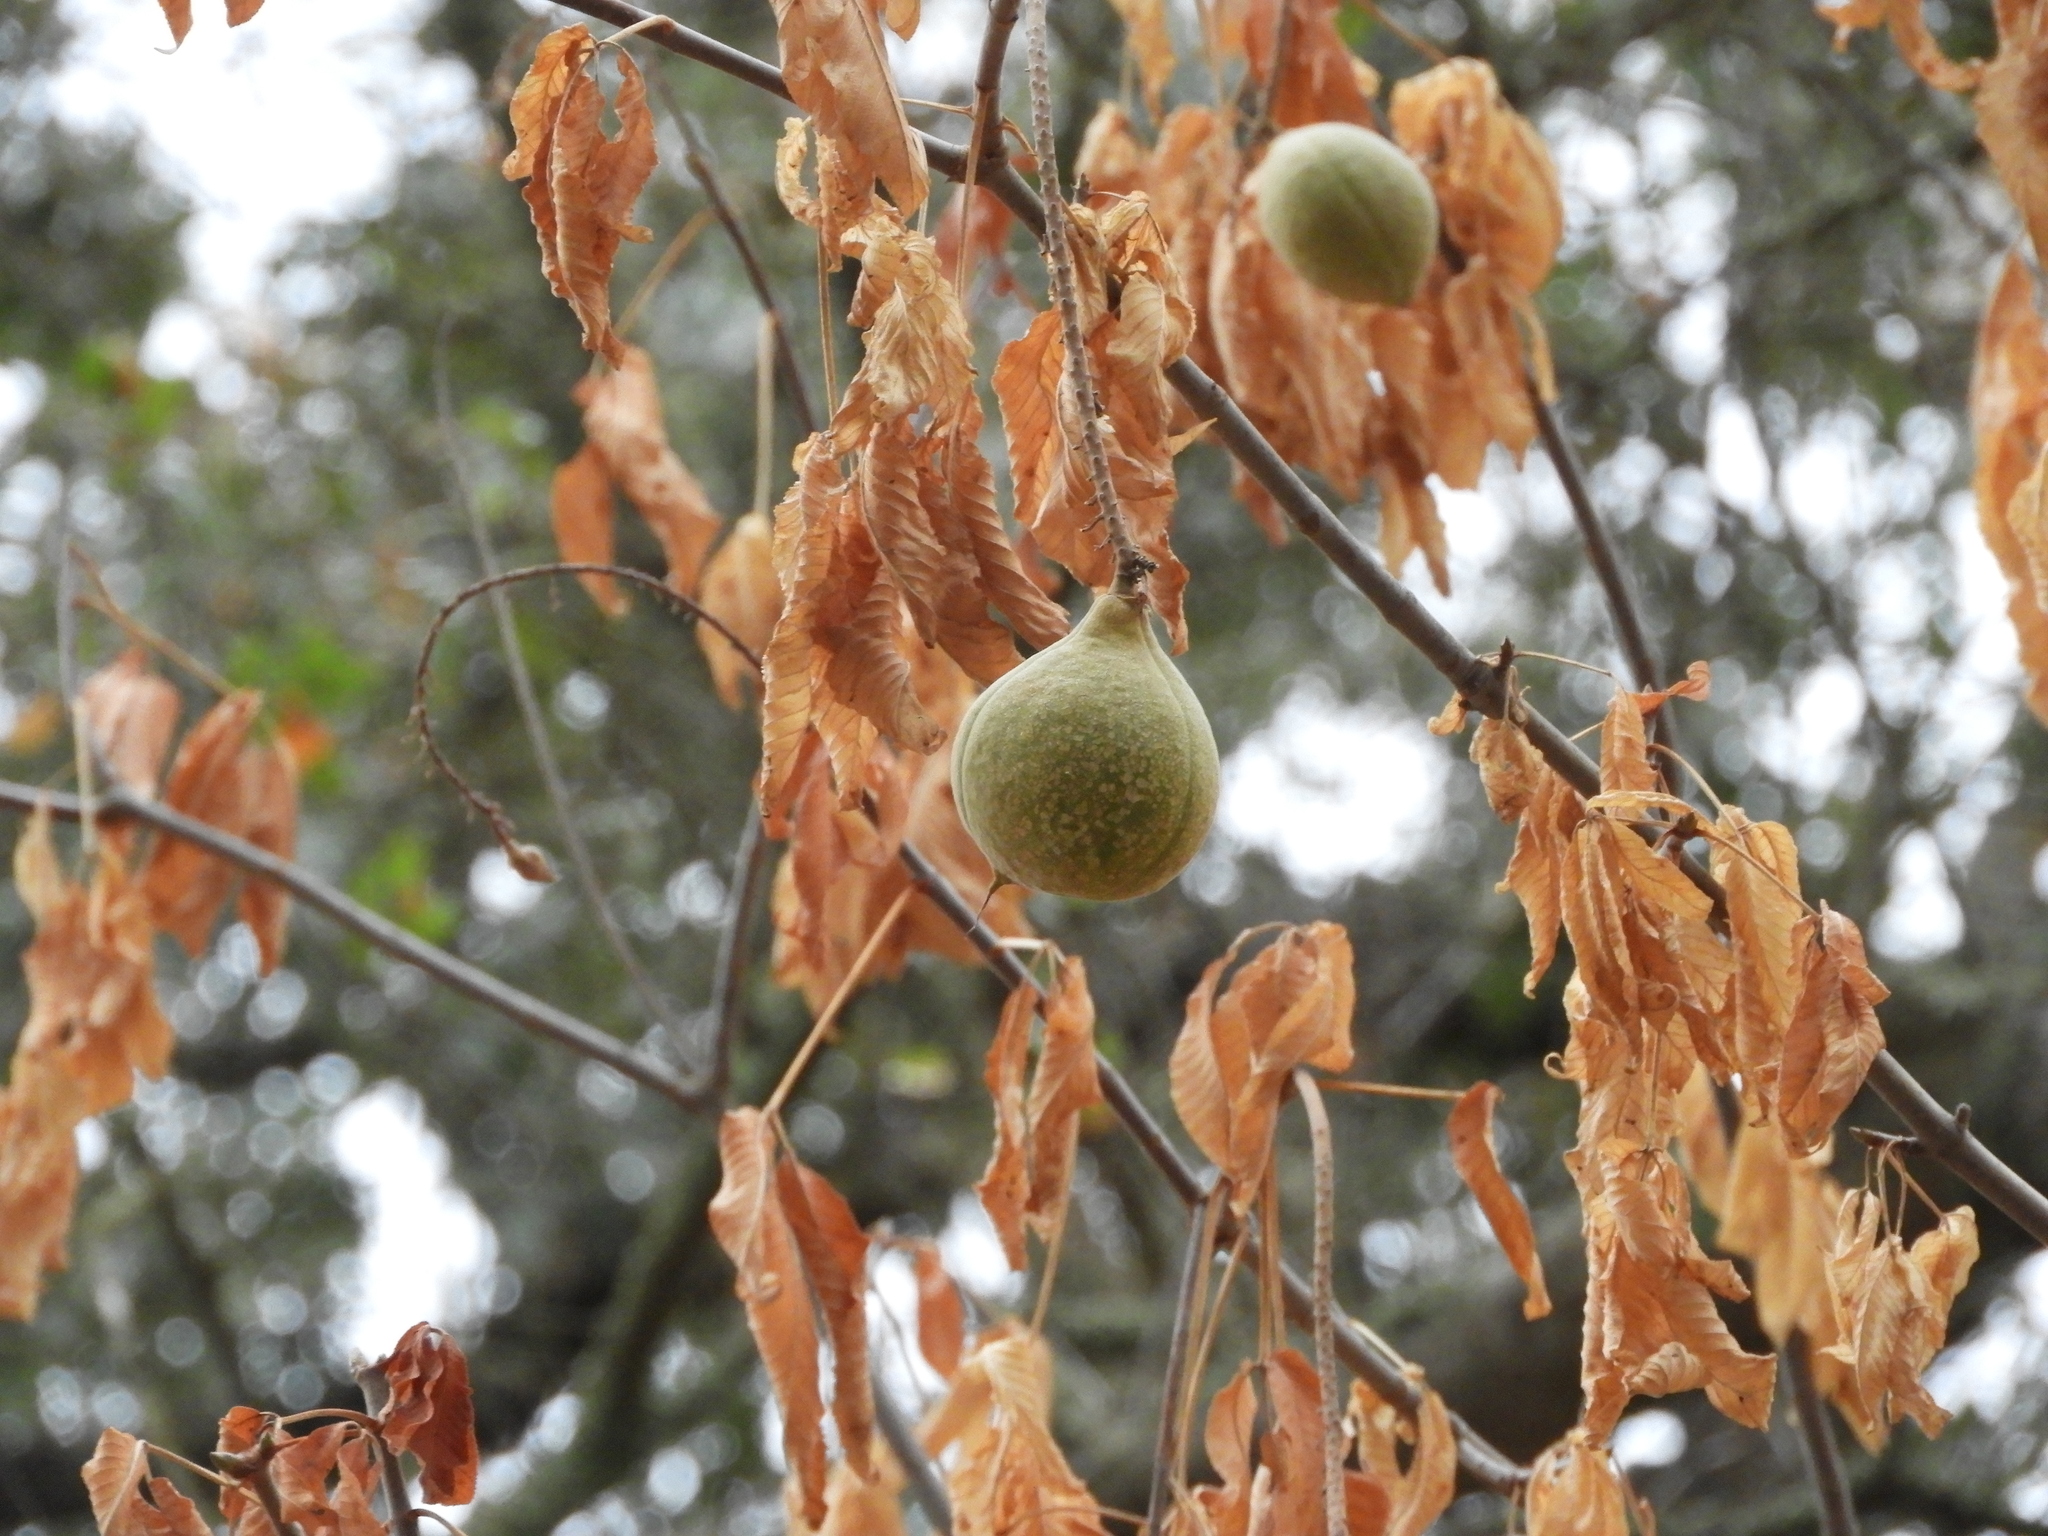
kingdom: Plantae
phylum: Tracheophyta
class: Magnoliopsida
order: Sapindales
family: Sapindaceae
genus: Aesculus
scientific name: Aesculus californica
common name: California buckeye
